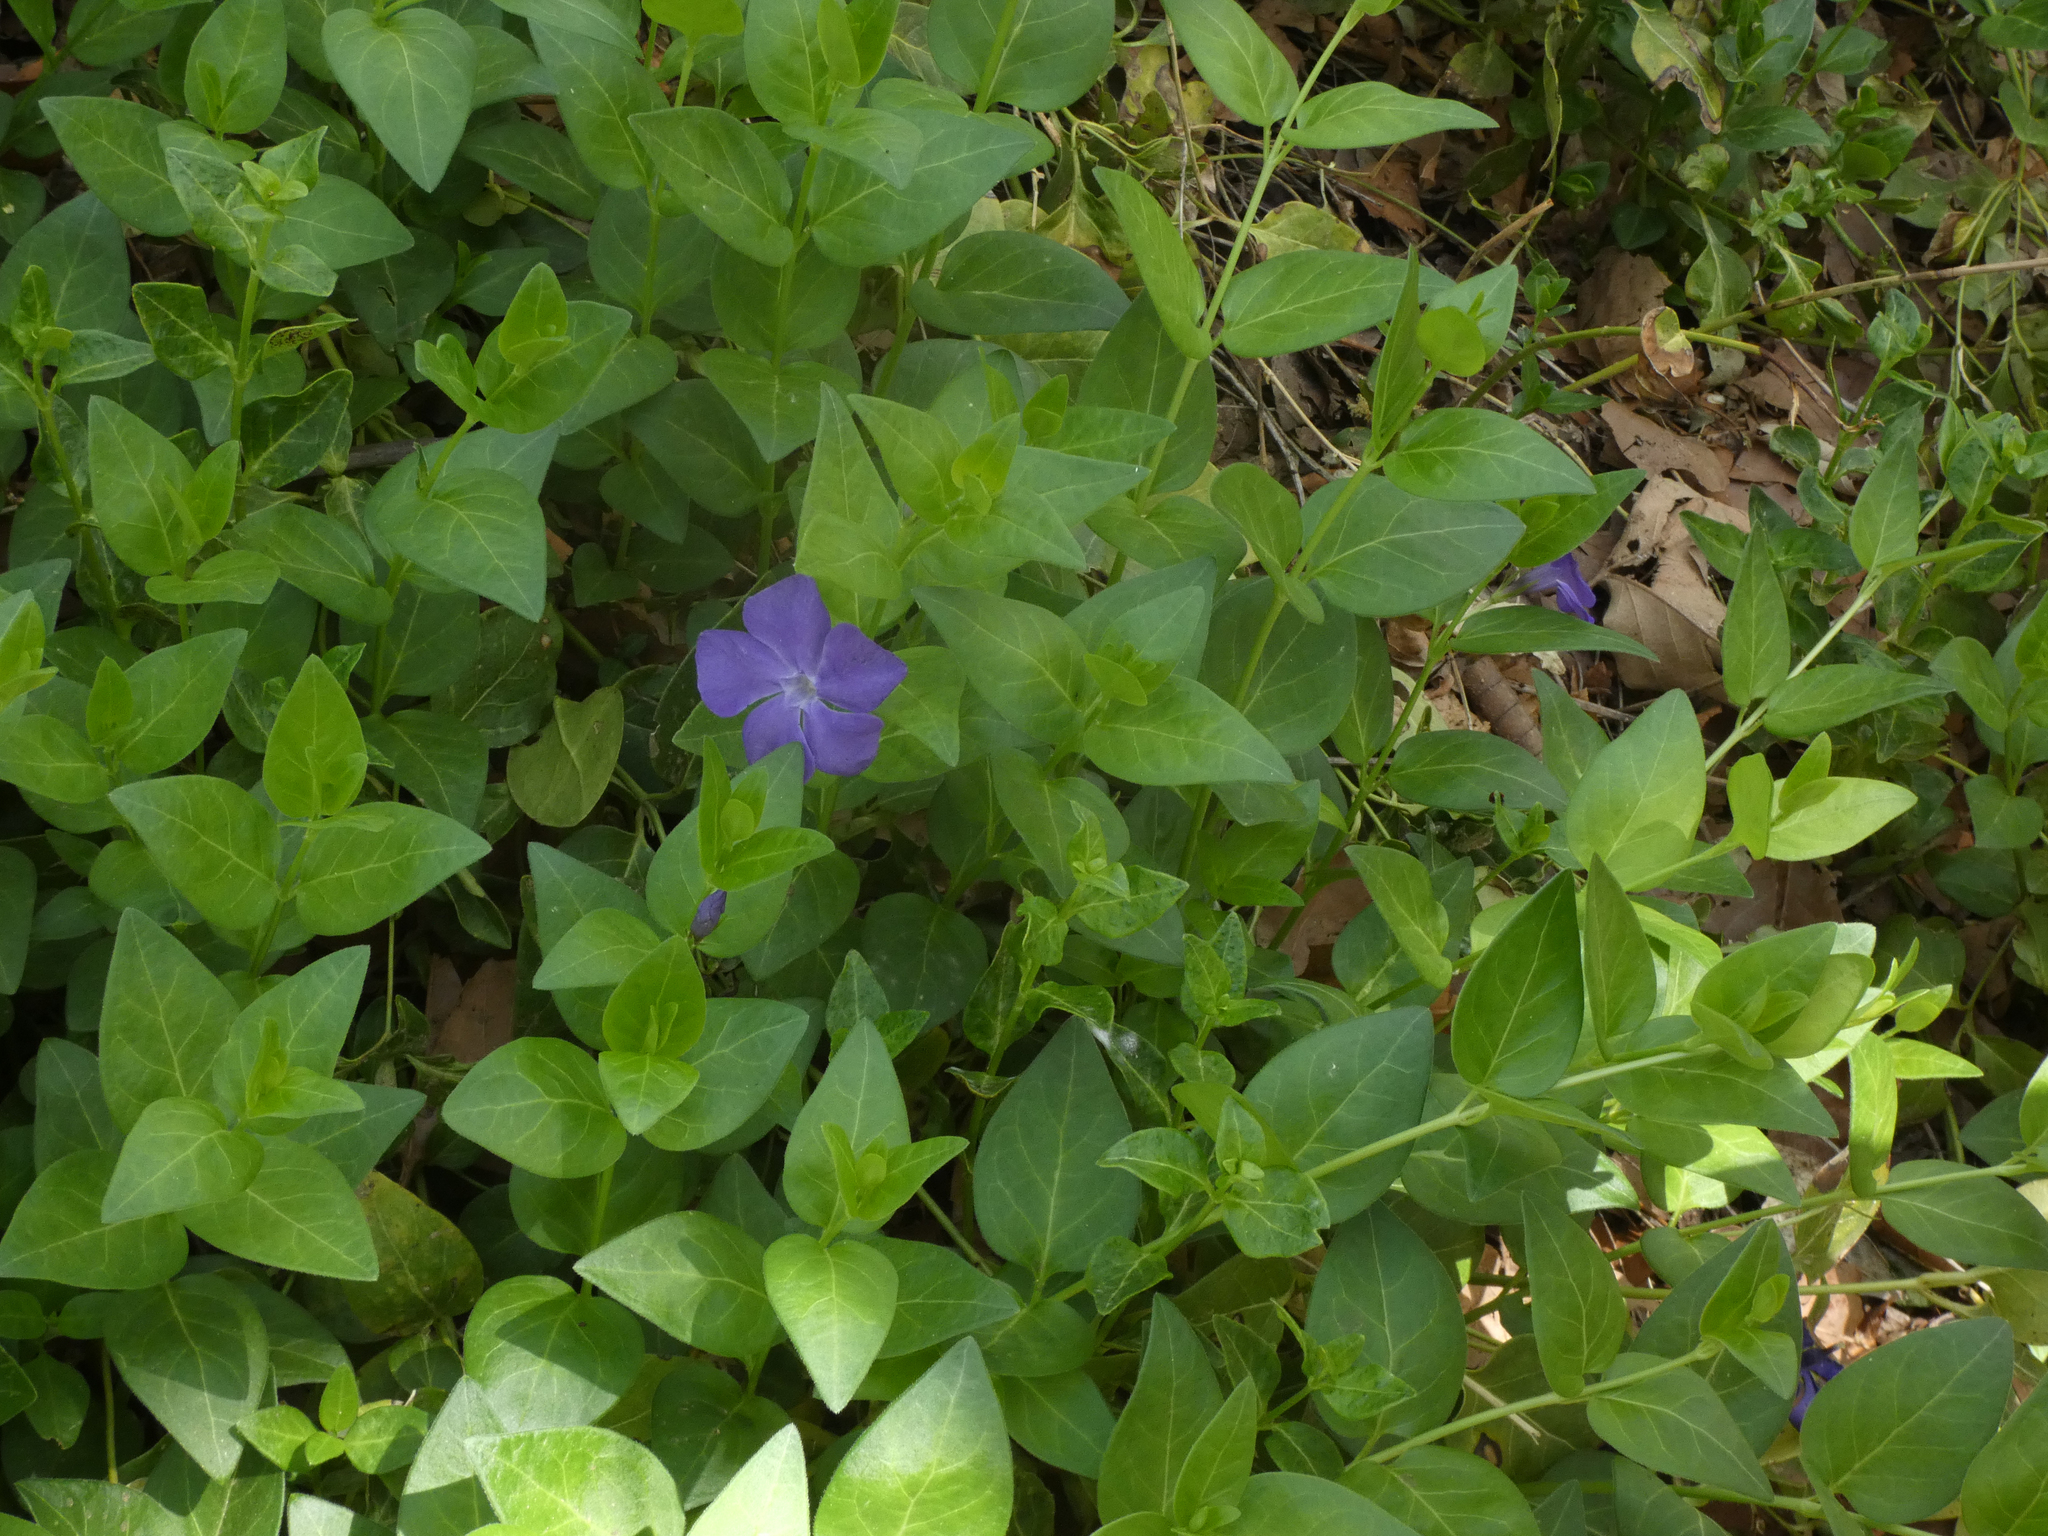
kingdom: Plantae
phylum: Tracheophyta
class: Magnoliopsida
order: Gentianales
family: Apocynaceae
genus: Vinca
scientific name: Vinca major
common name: Greater periwinkle
